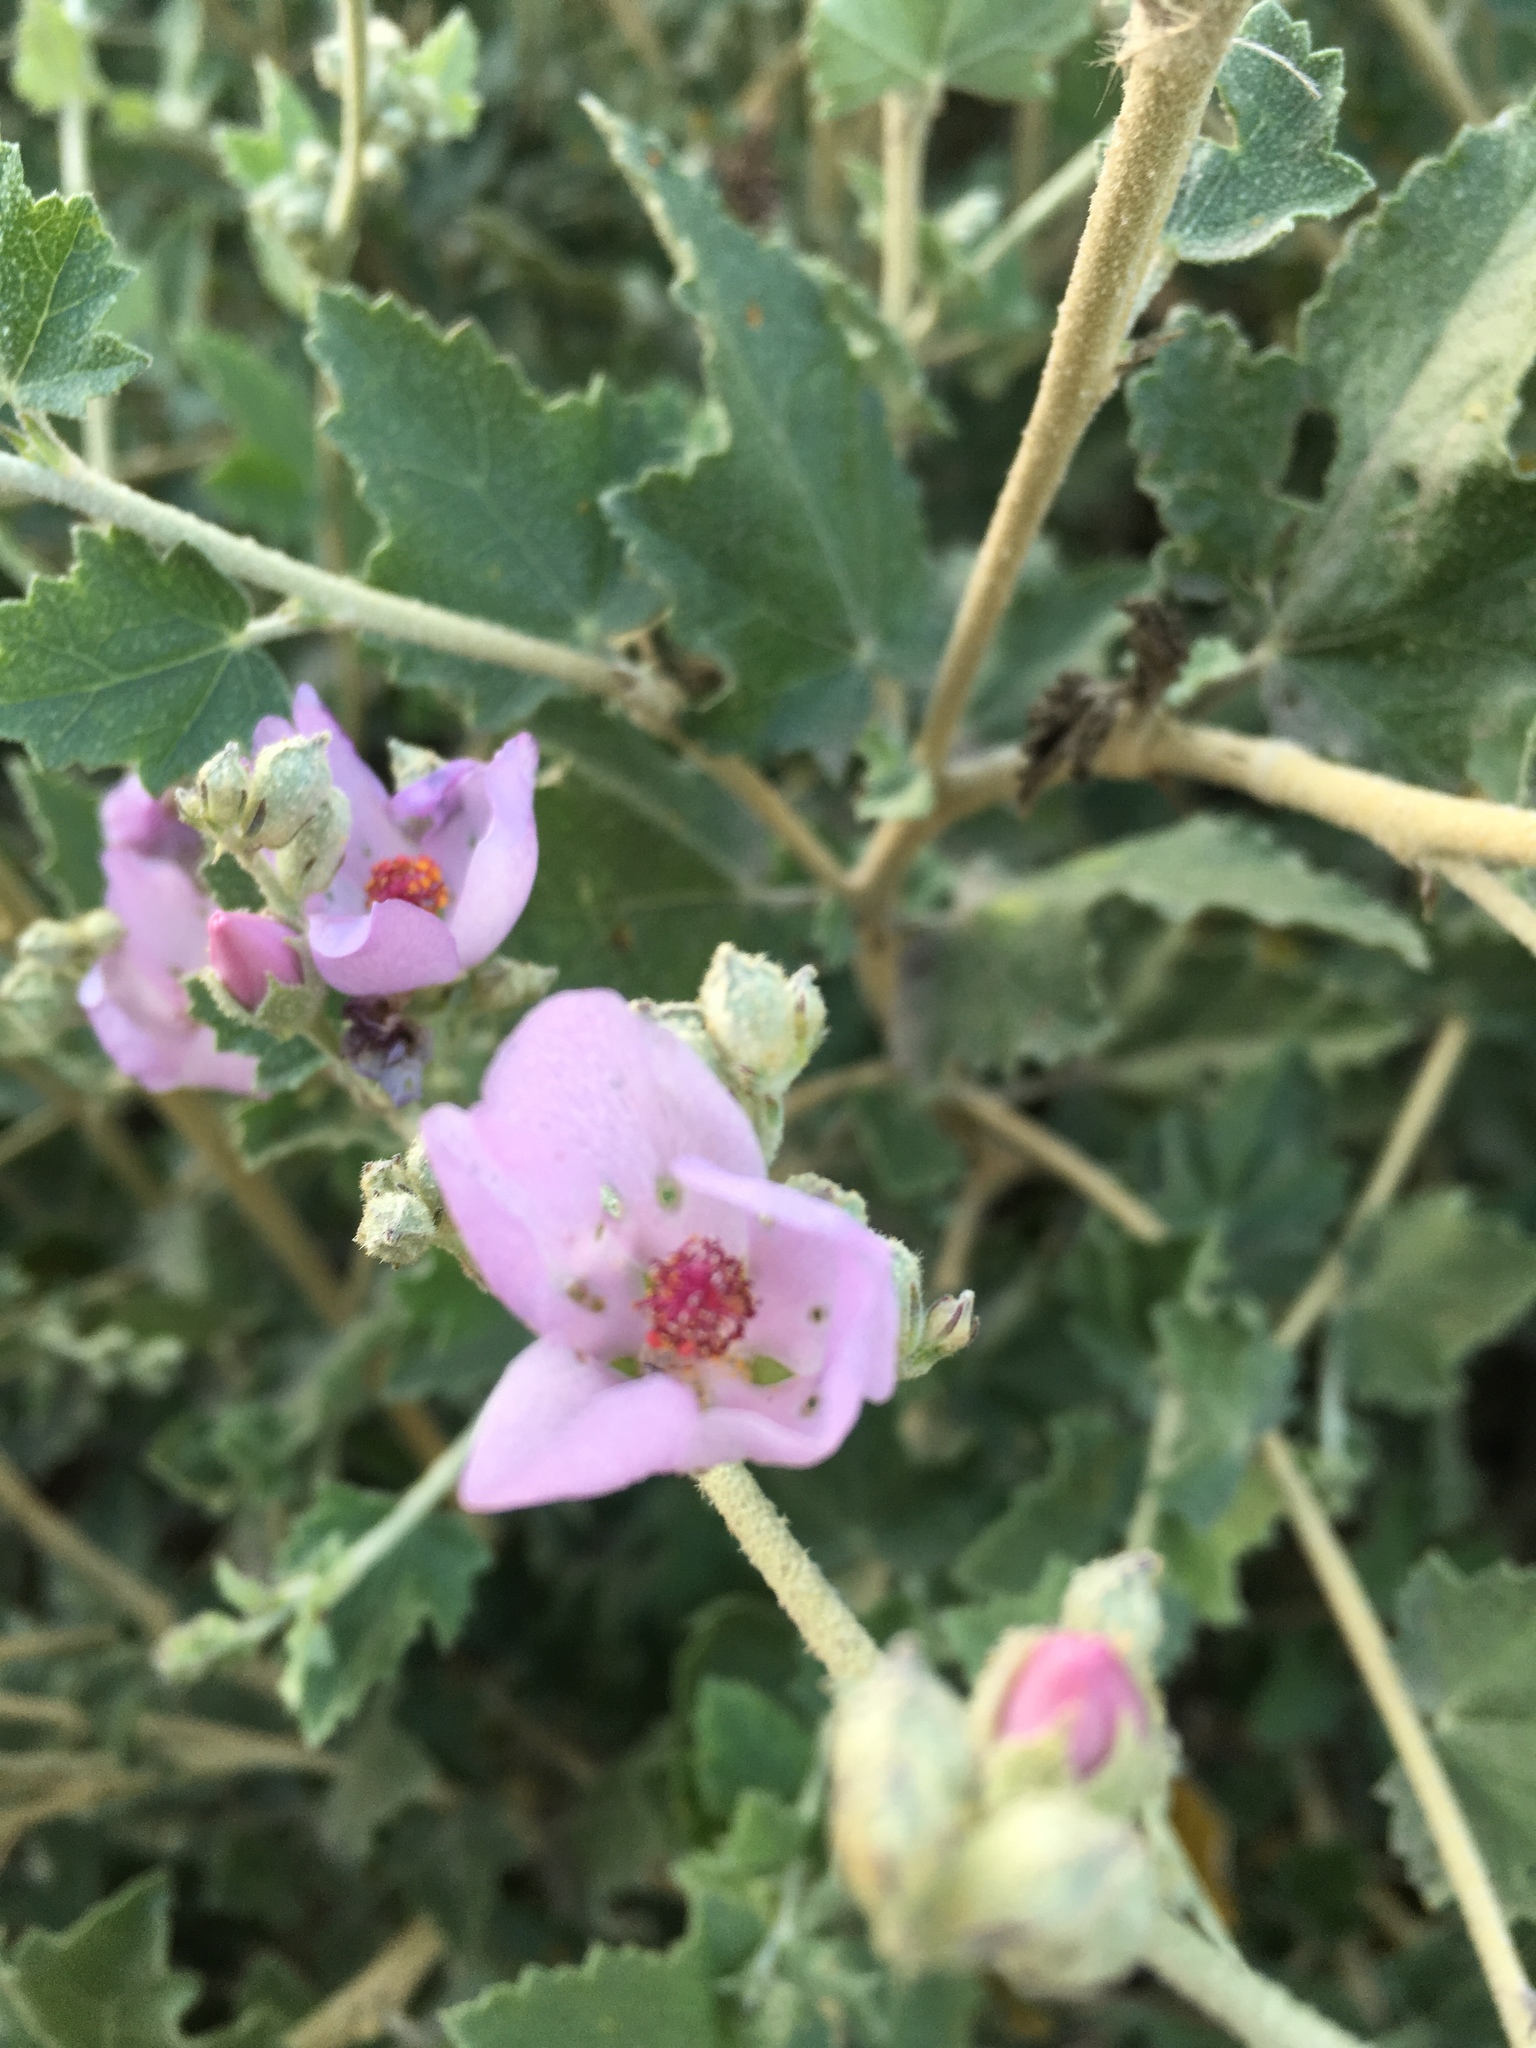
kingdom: Plantae
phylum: Tracheophyta
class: Magnoliopsida
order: Malvales
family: Malvaceae
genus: Malacothamnus
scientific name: Malacothamnus fasciculatus
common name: Sant cruz island bush-mallow
